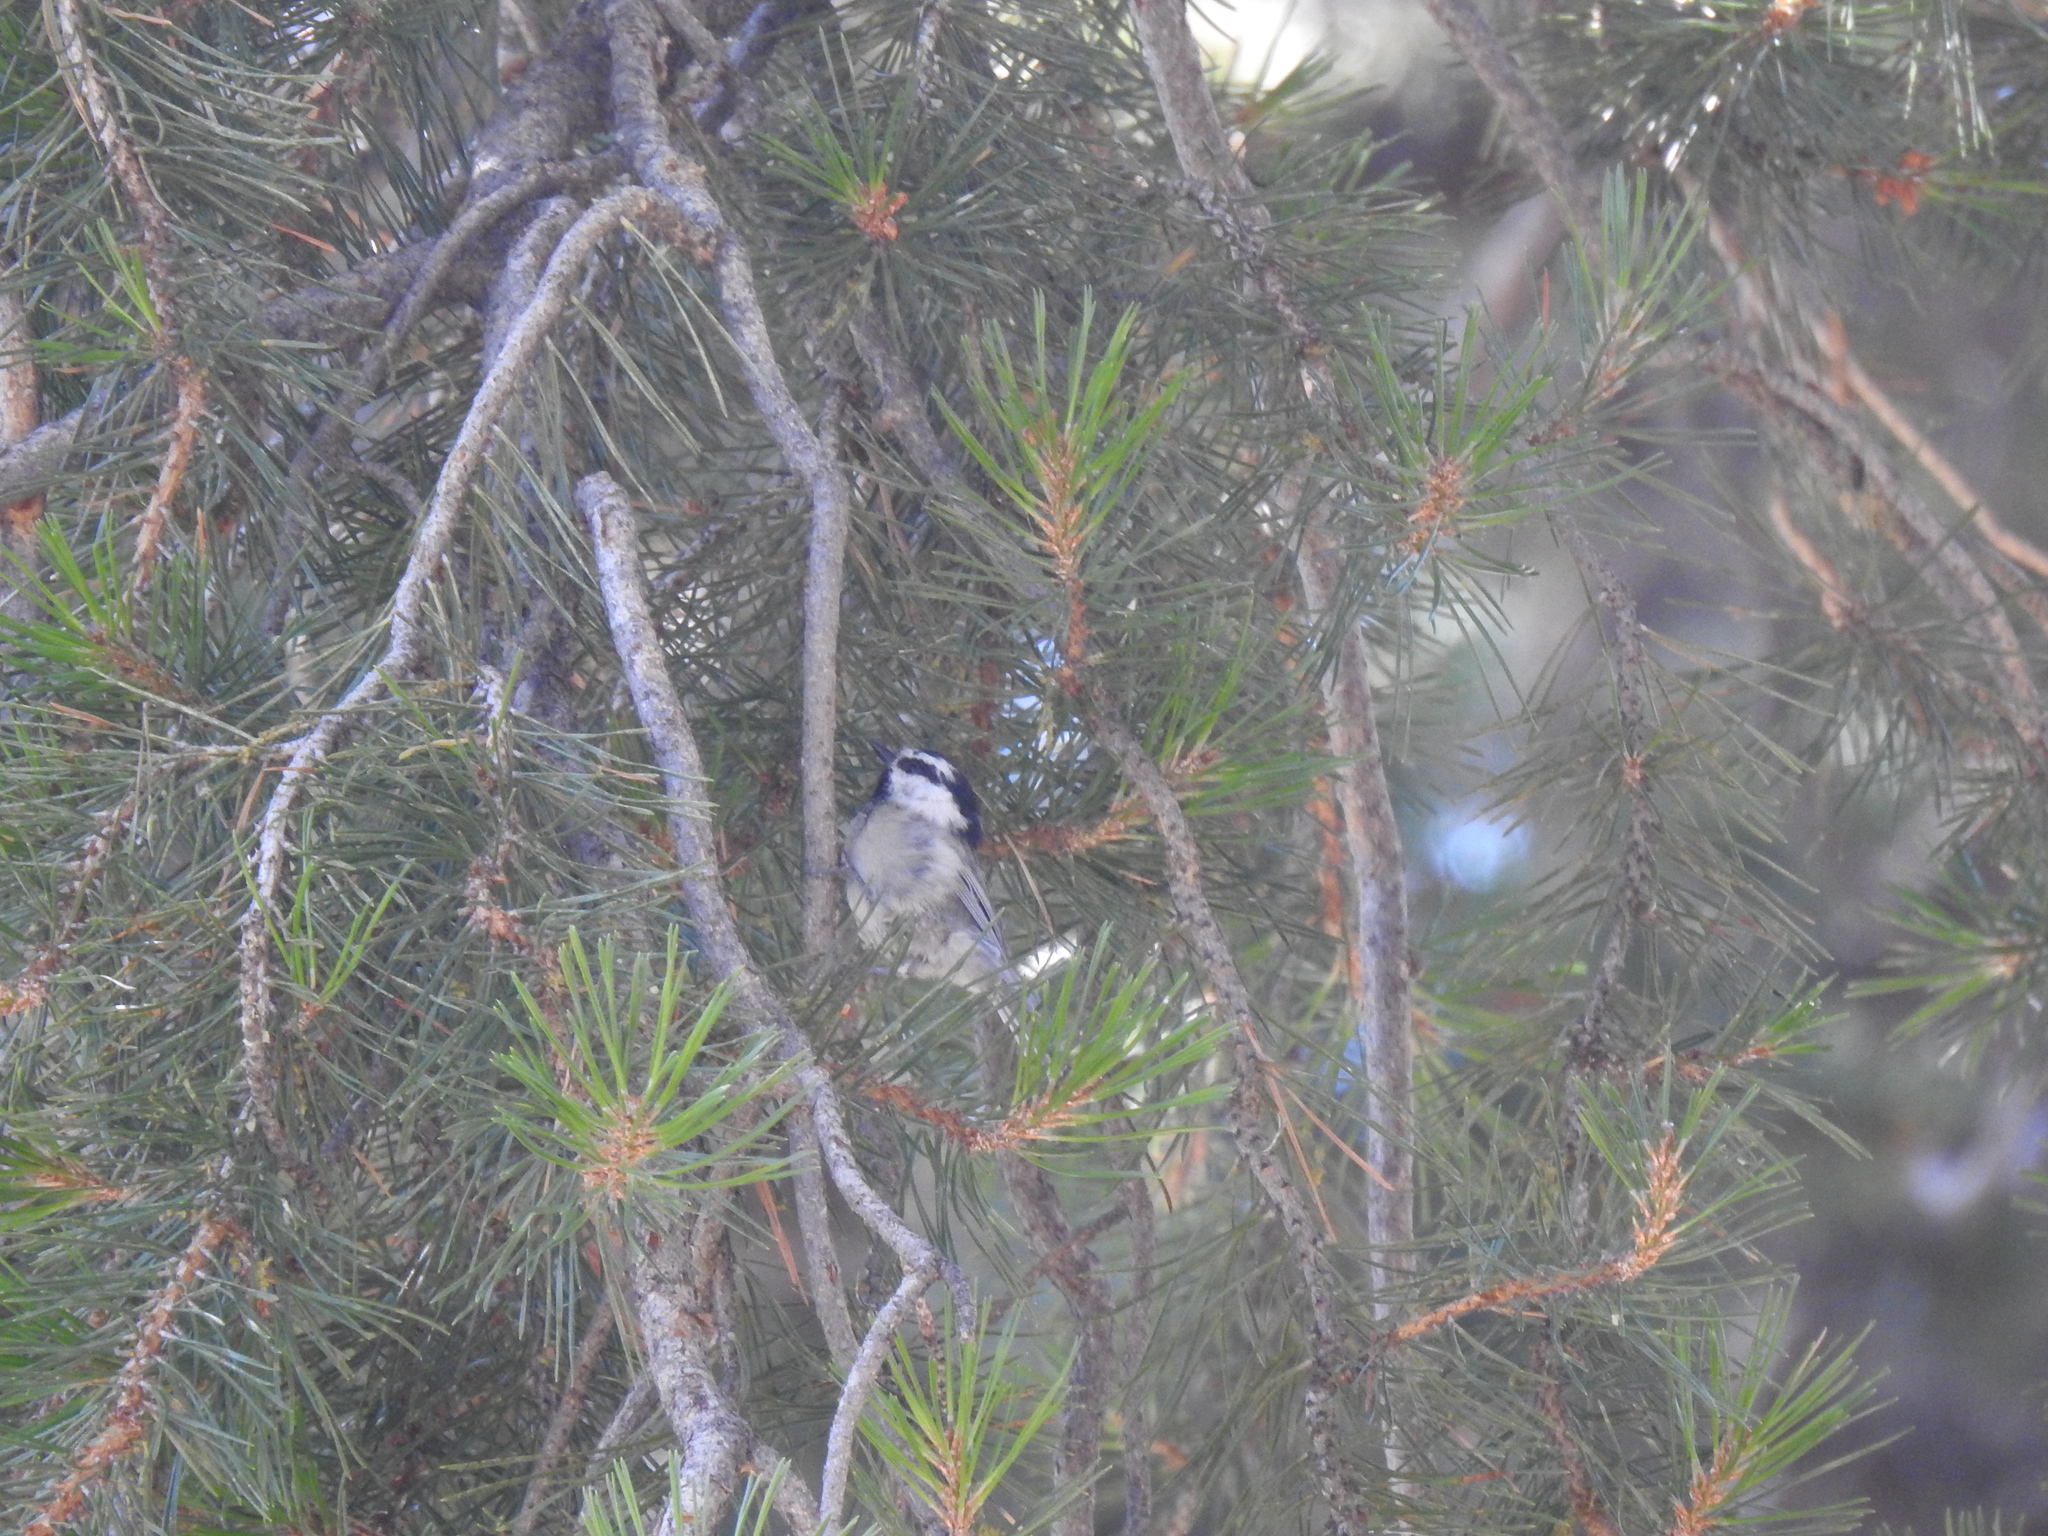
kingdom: Animalia
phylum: Chordata
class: Aves
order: Passeriformes
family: Paridae
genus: Poecile
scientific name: Poecile gambeli
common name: Mountain chickadee
